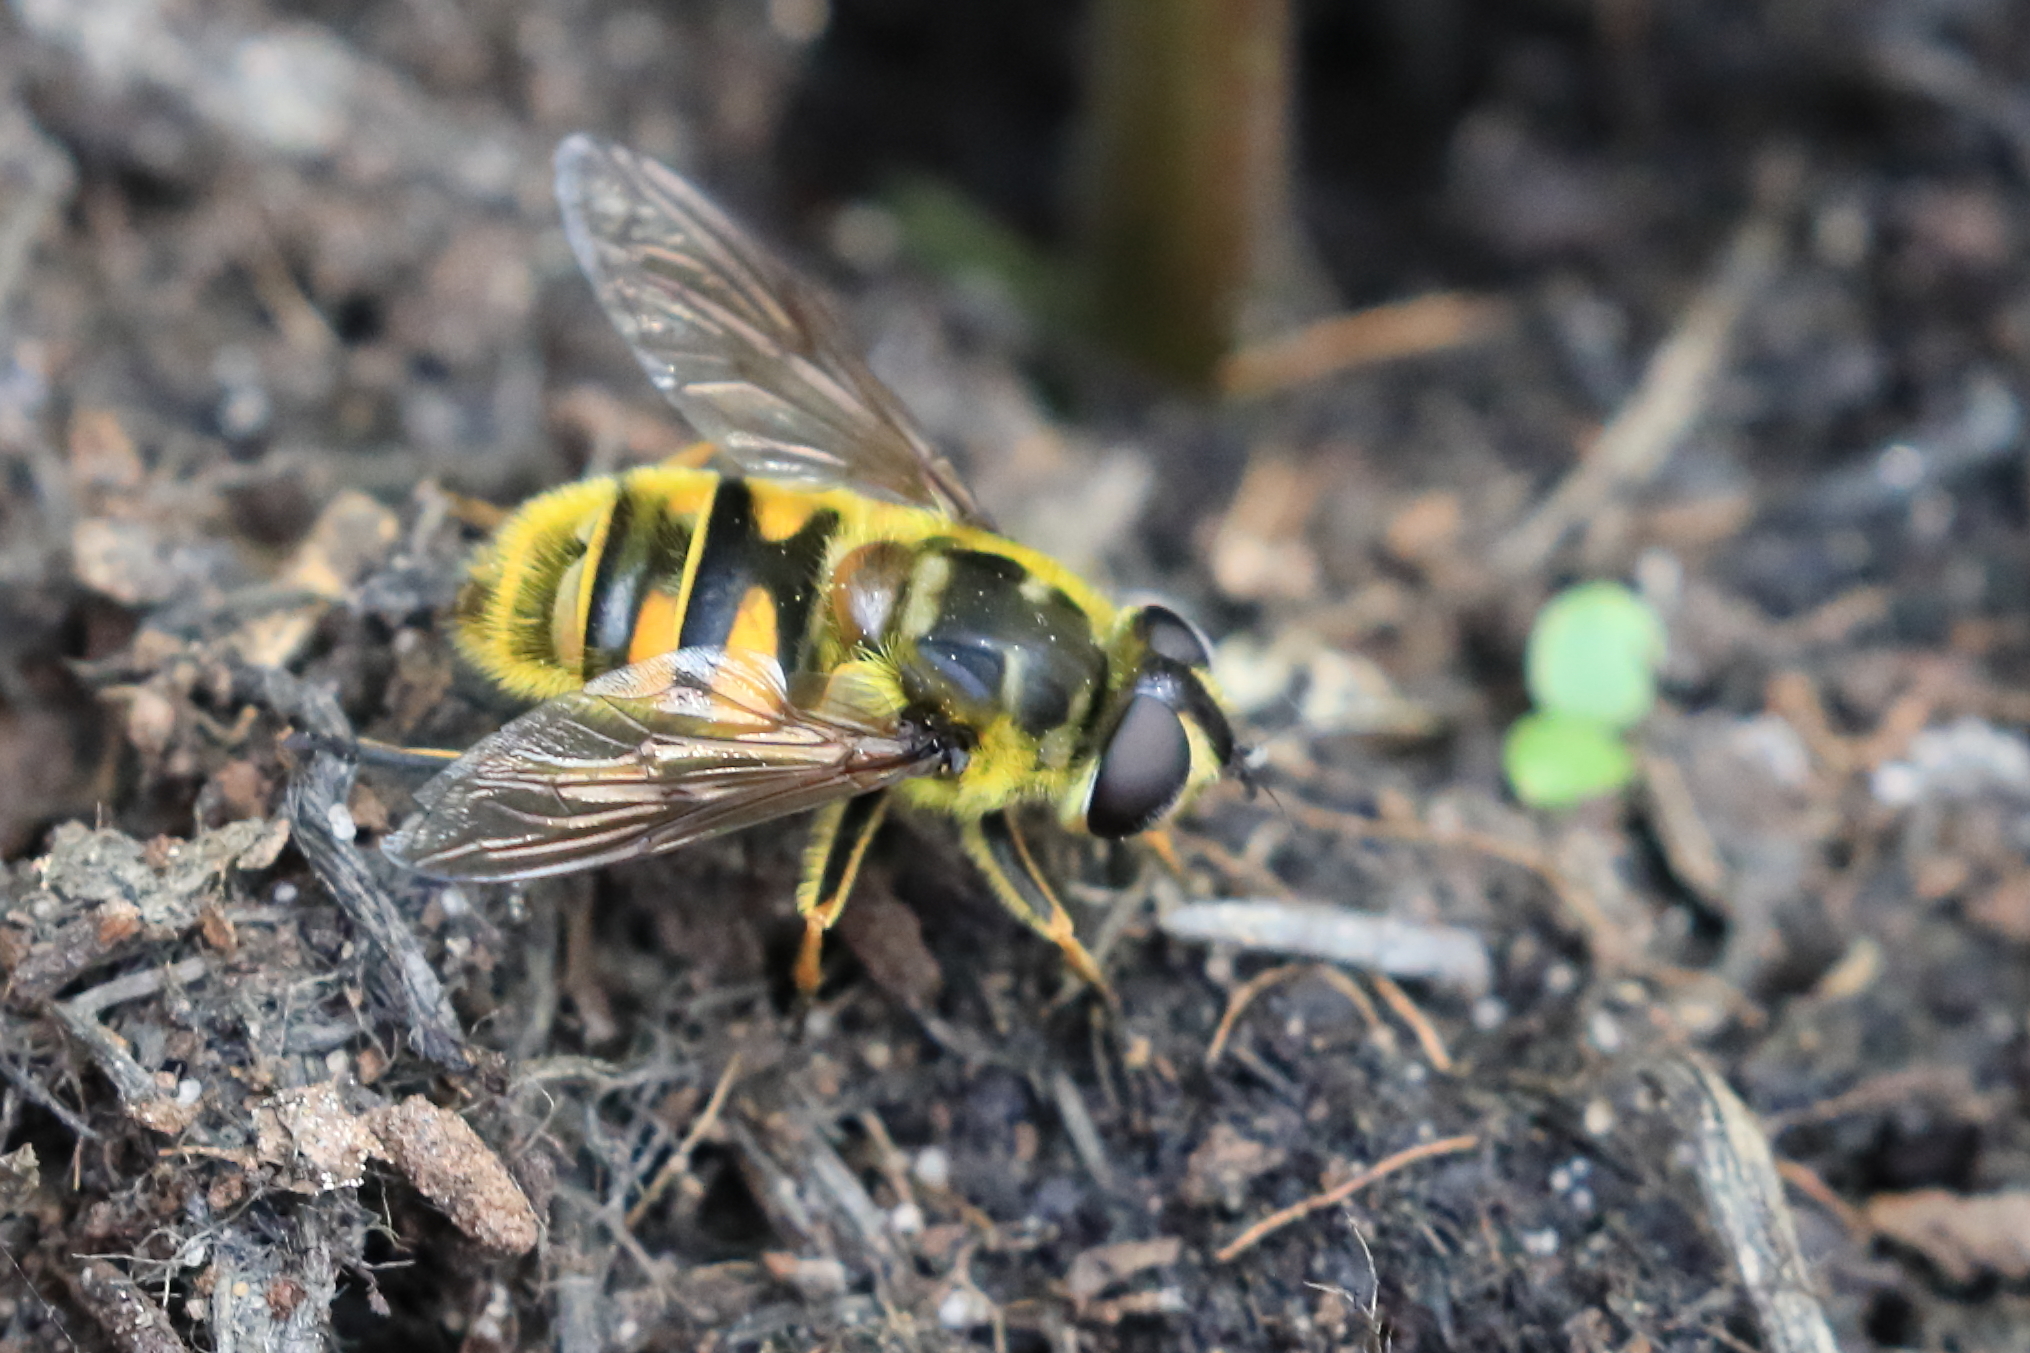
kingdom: Animalia
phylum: Arthropoda
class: Insecta
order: Diptera
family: Syrphidae
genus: Myathropa
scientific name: Myathropa florea
